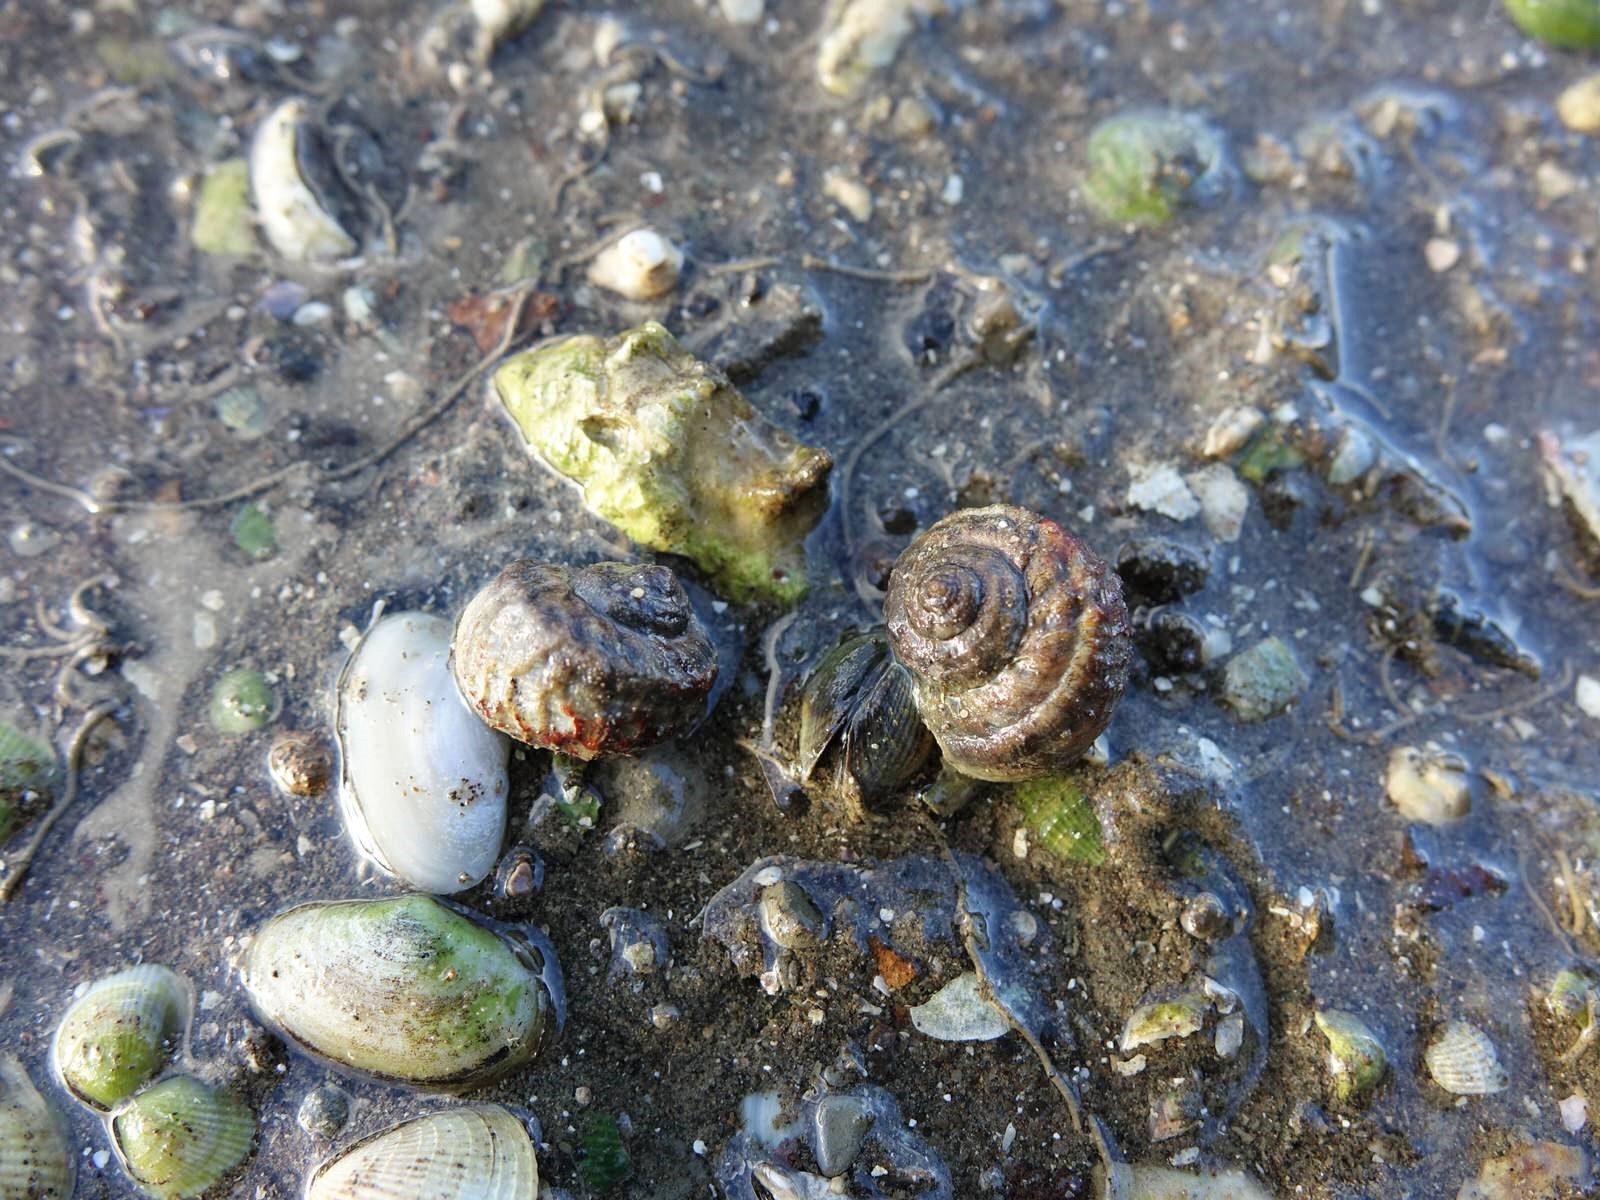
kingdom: Animalia
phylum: Mollusca
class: Gastropoda
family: Amphibolidae
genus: Amphibola
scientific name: Amphibola crenata
